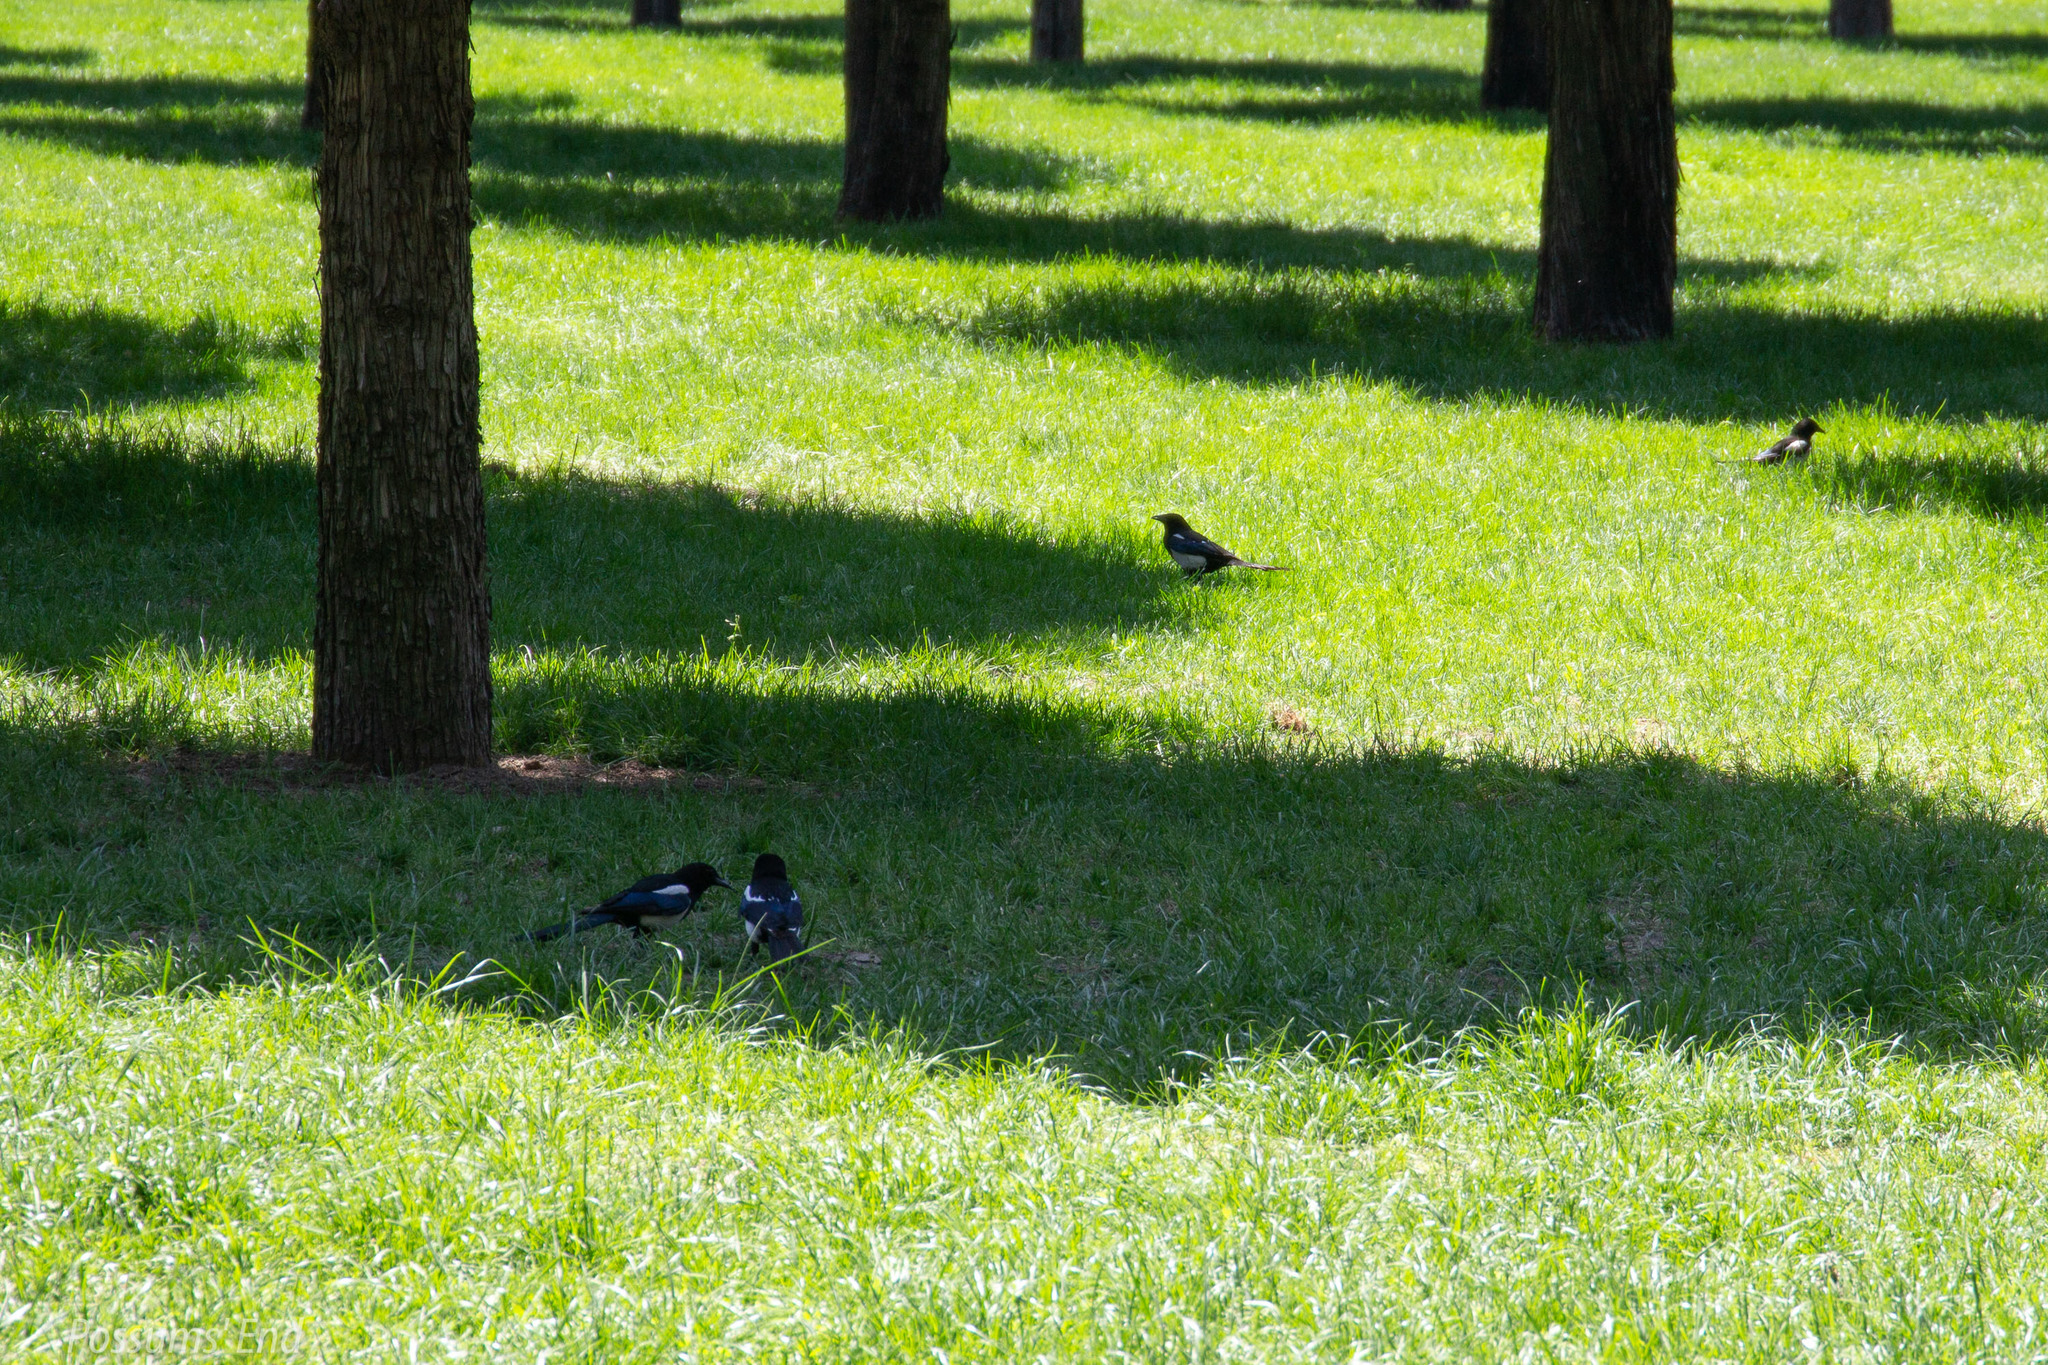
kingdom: Animalia
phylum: Chordata
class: Aves
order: Passeriformes
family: Corvidae
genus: Pica
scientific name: Pica serica
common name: Oriental magpie
